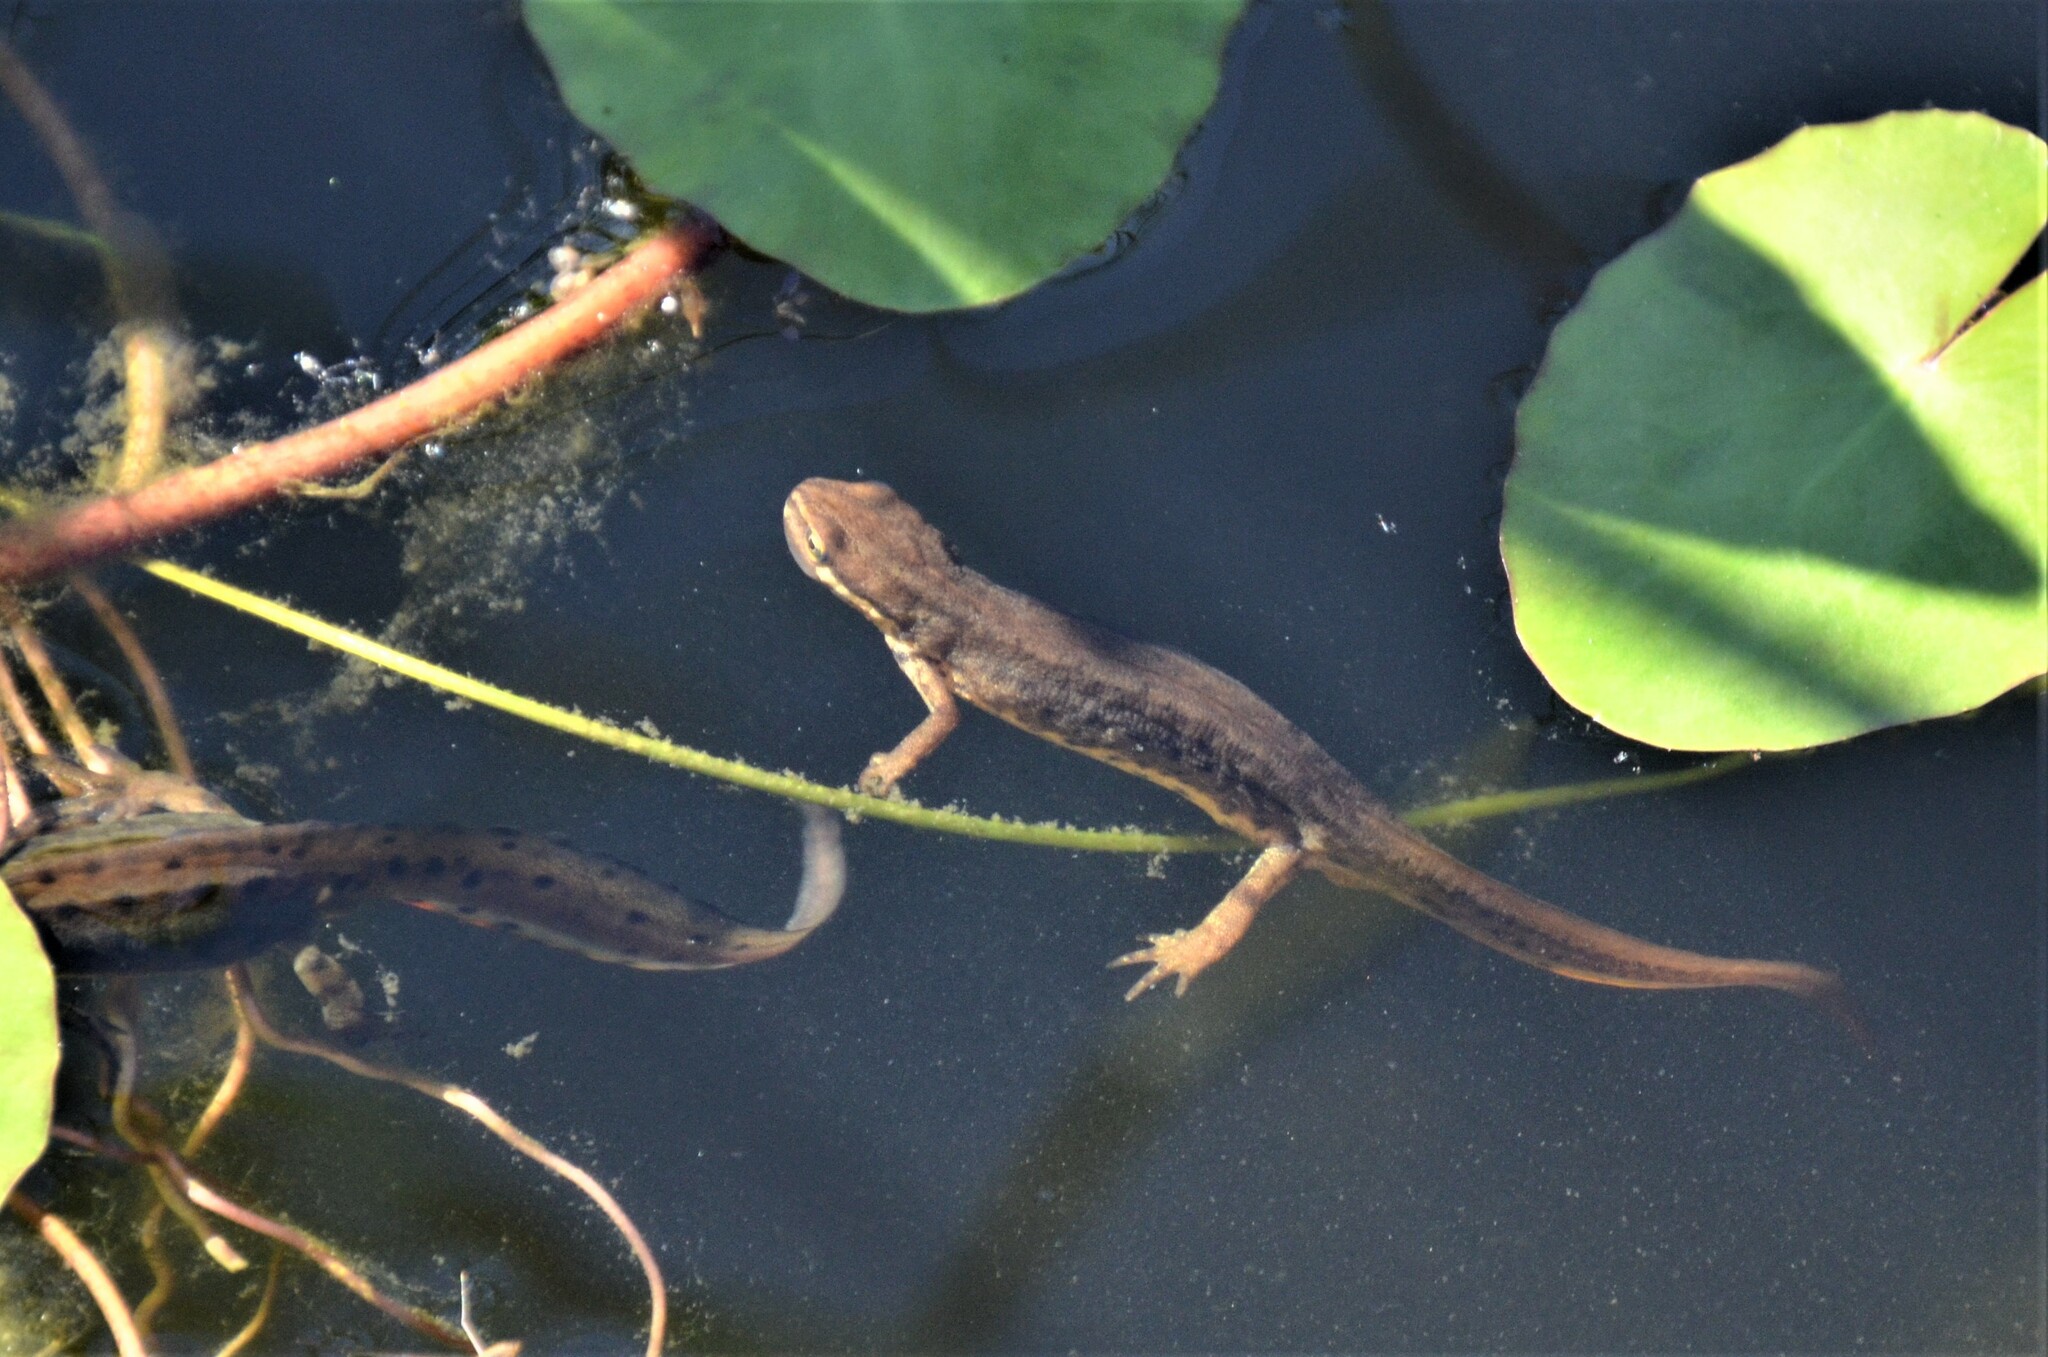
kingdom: Animalia
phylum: Chordata
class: Amphibia
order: Caudata
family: Salamandridae
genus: Lissotriton
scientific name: Lissotriton vulgaris
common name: Smooth newt
